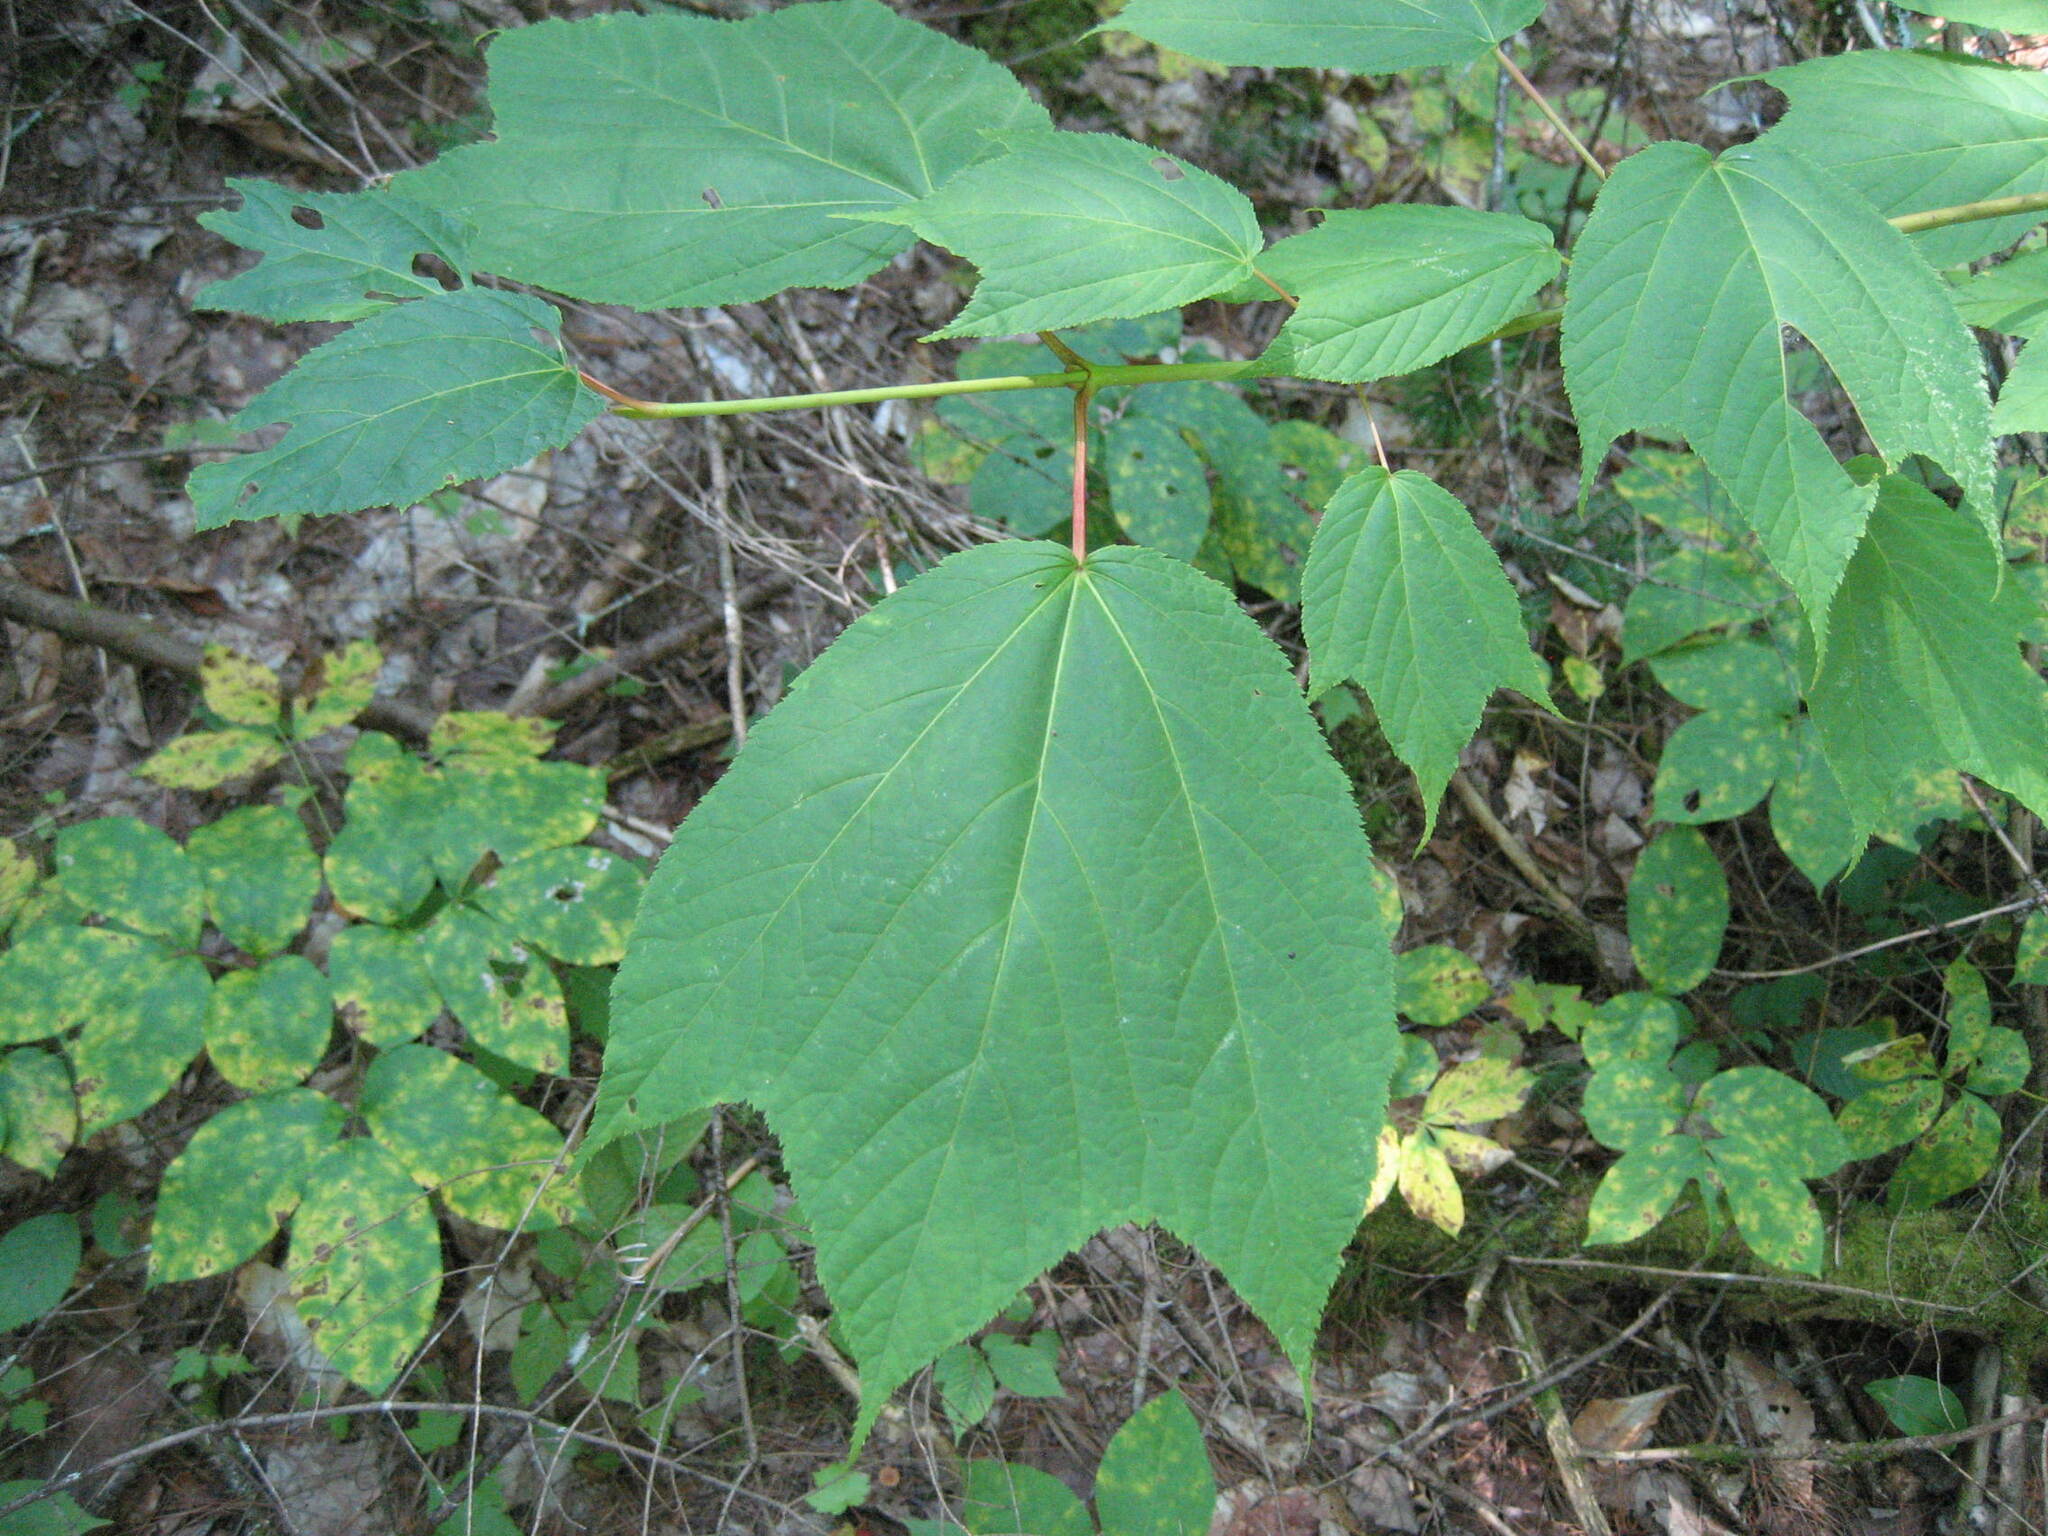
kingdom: Plantae
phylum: Tracheophyta
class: Magnoliopsida
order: Sapindales
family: Sapindaceae
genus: Acer
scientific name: Acer pensylvanicum
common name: Moosewood
